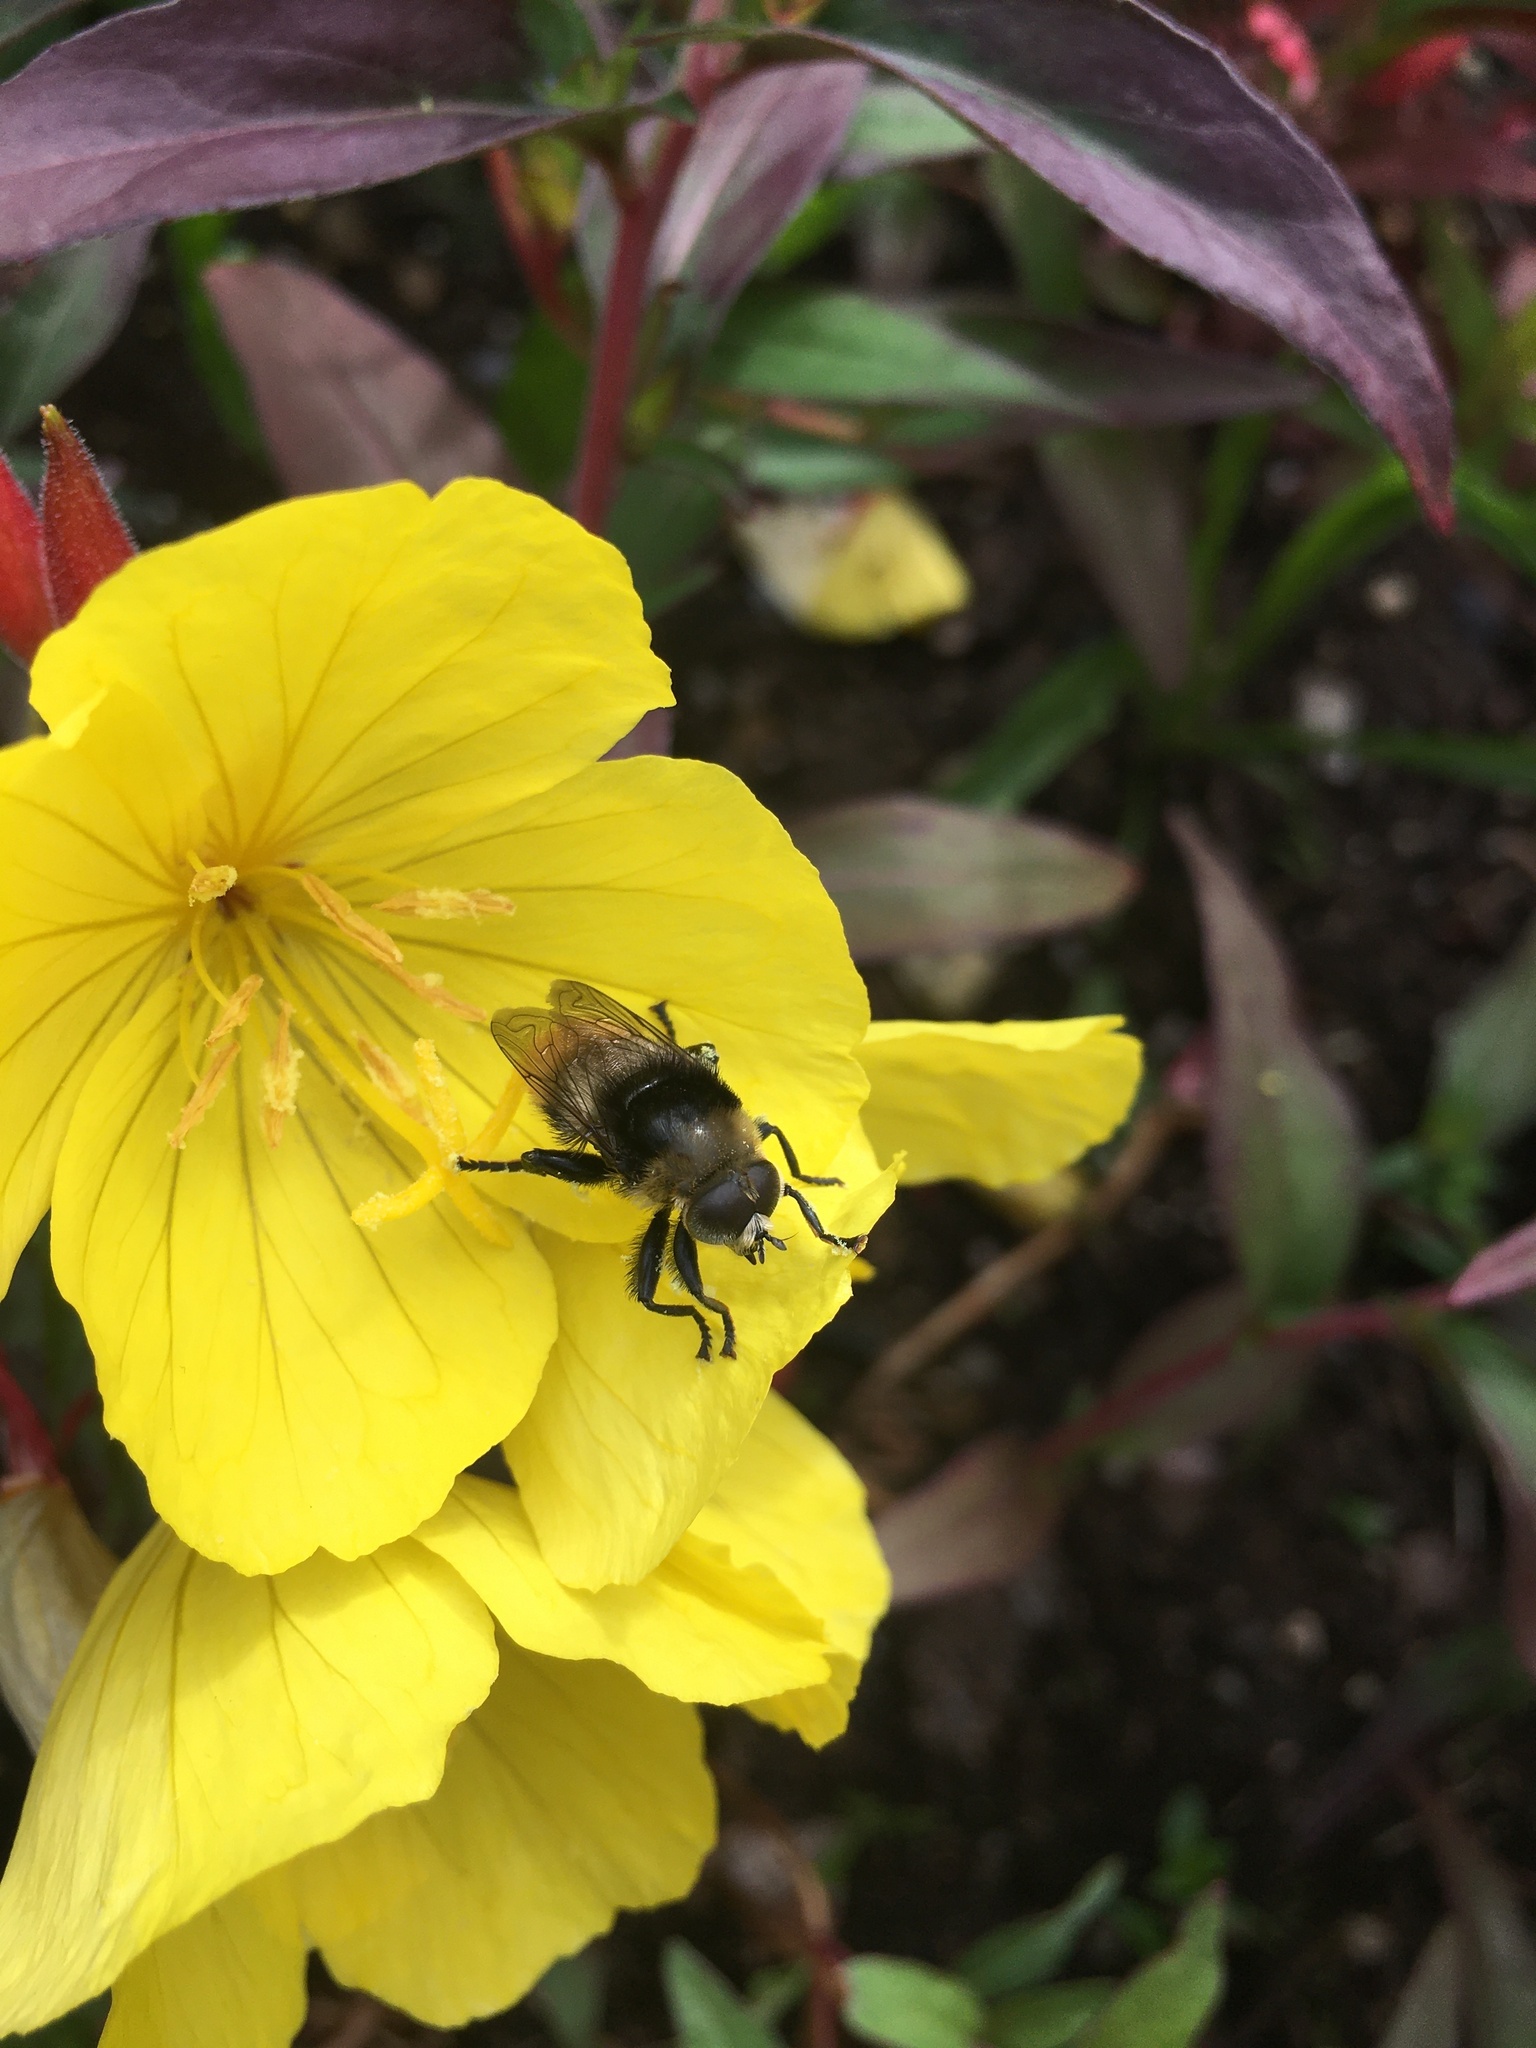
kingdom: Animalia
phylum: Arthropoda
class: Insecta
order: Diptera
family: Syrphidae
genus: Merodon
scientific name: Merodon equestris
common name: Greater bulb-fly
